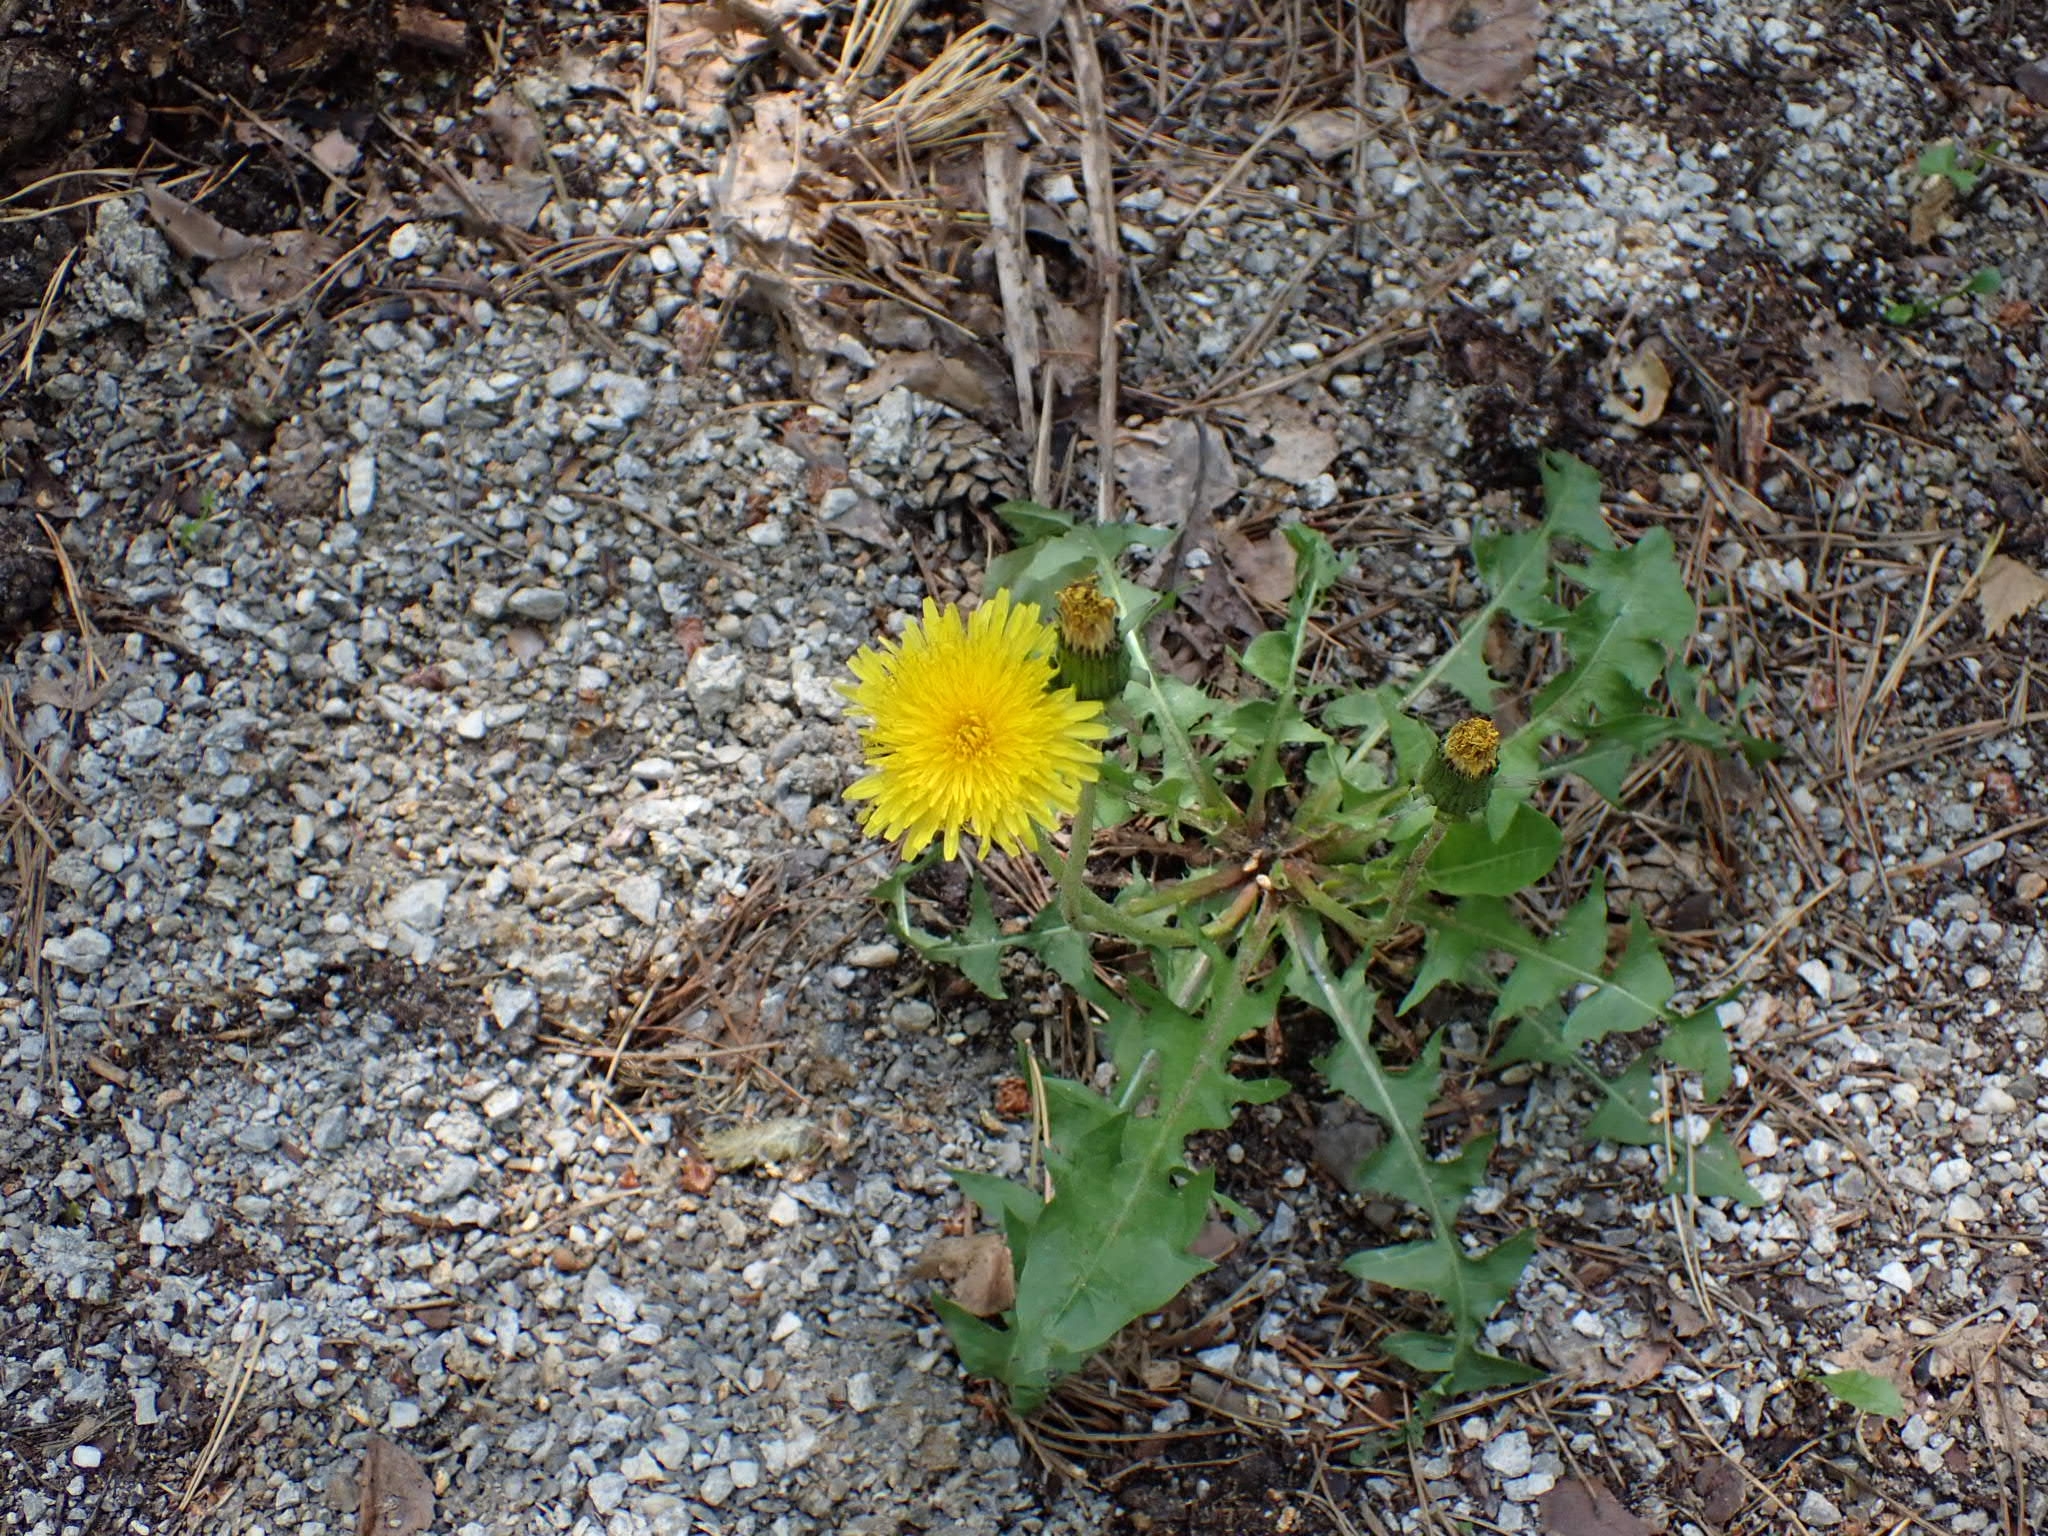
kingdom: Plantae
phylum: Tracheophyta
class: Magnoliopsida
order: Asterales
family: Asteraceae
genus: Taraxacum
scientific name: Taraxacum officinale
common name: Common dandelion
